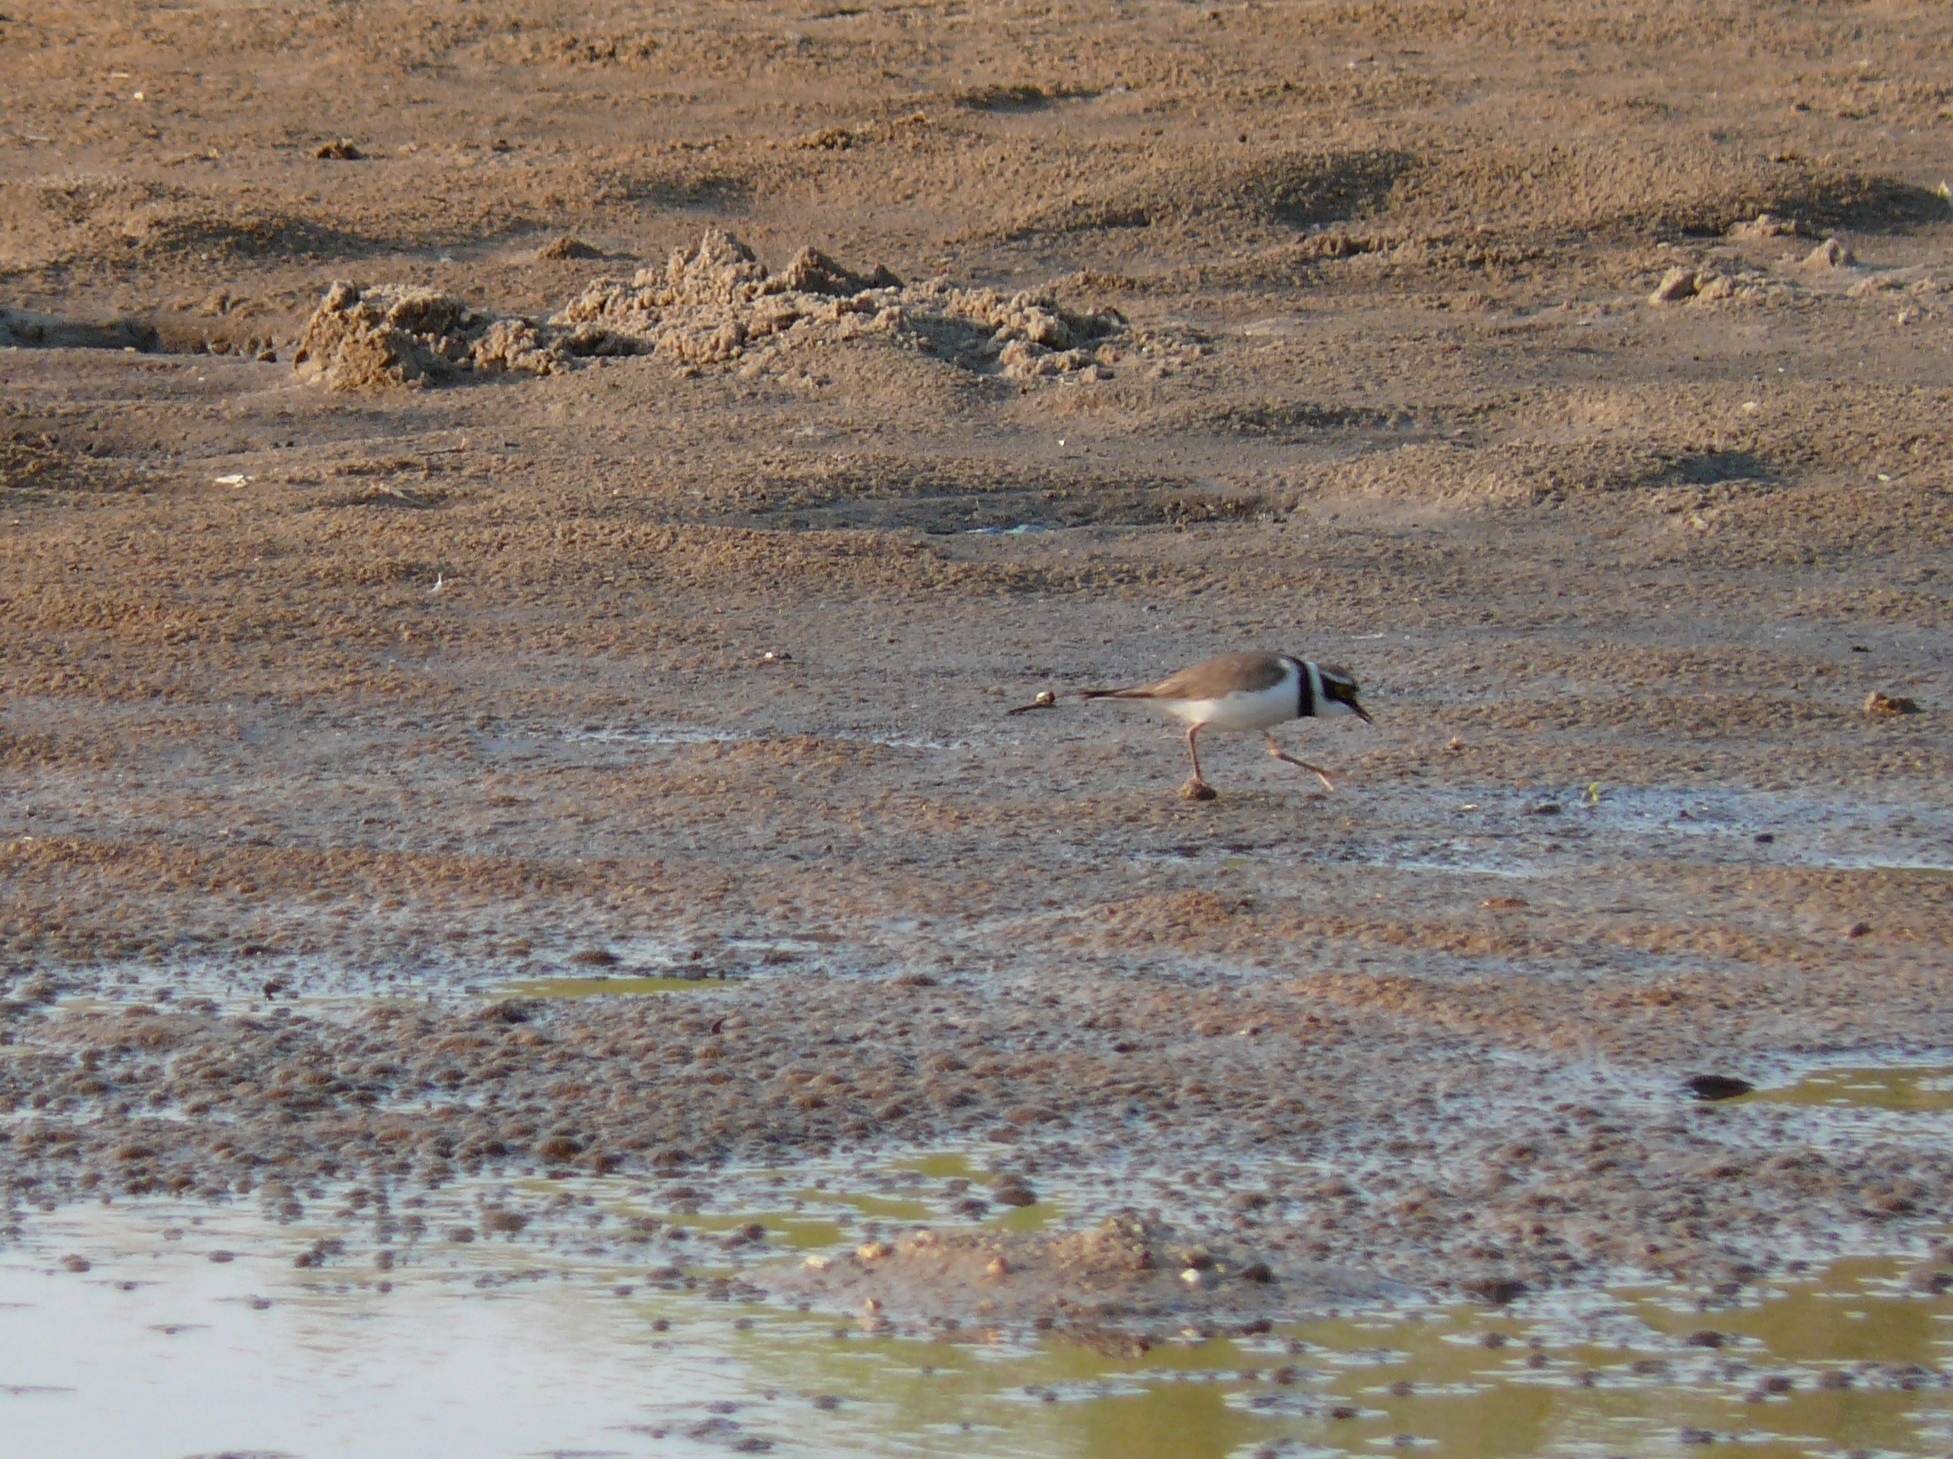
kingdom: Animalia
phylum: Chordata
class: Aves
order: Charadriiformes
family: Charadriidae
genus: Charadrius
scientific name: Charadrius dubius
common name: Little ringed plover
